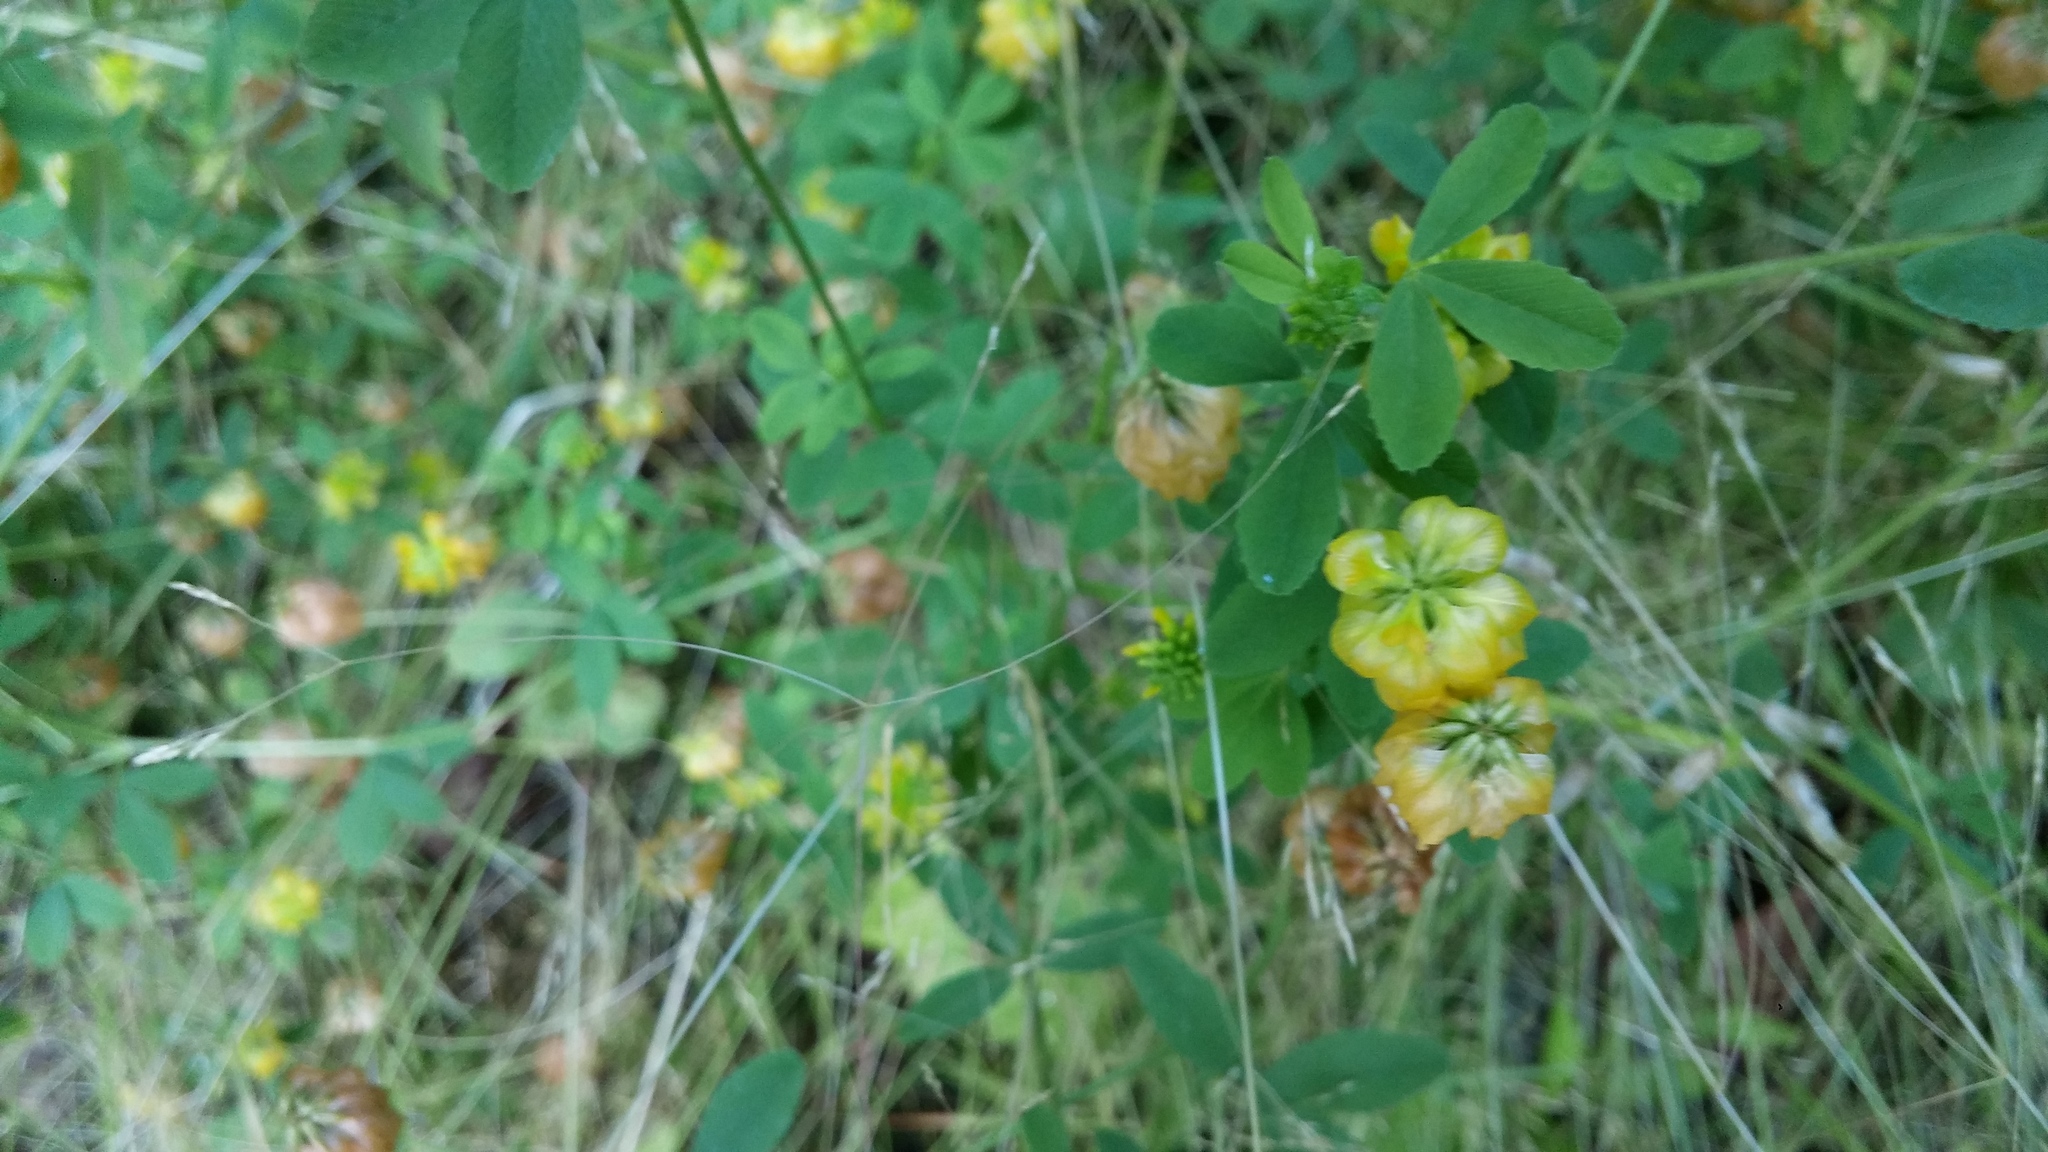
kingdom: Plantae
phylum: Tracheophyta
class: Magnoliopsida
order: Fabales
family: Fabaceae
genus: Trifolium
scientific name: Trifolium aureum
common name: Golden clover
